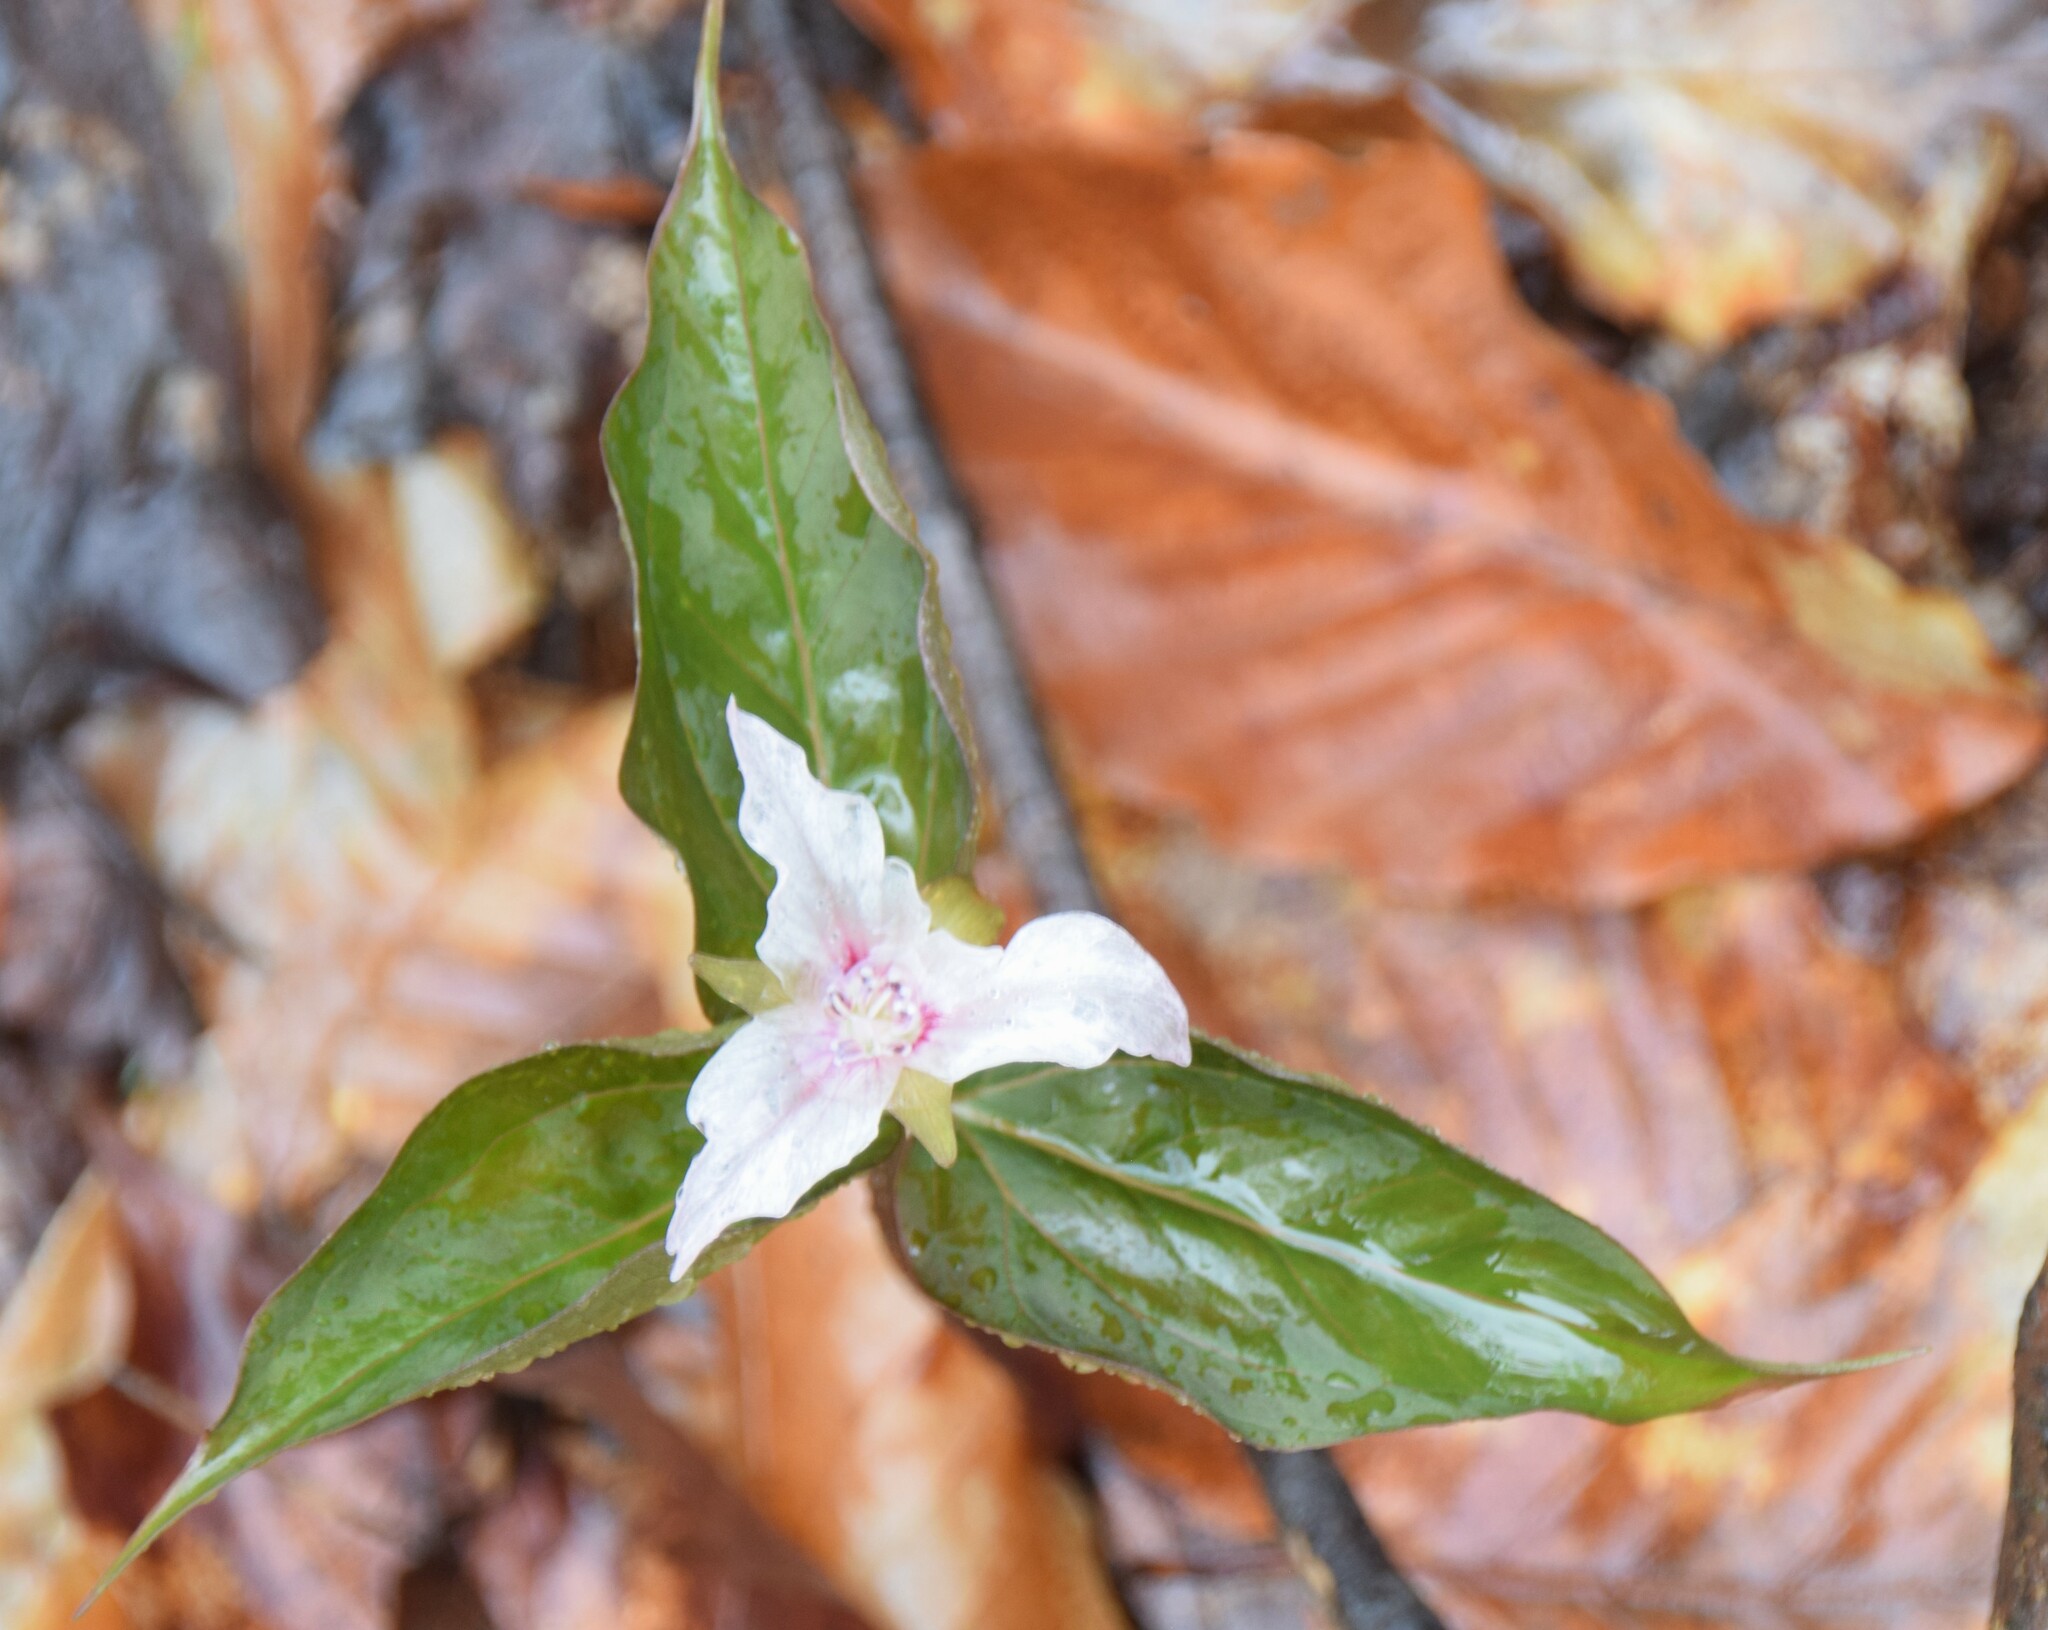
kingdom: Plantae
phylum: Tracheophyta
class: Liliopsida
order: Liliales
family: Melanthiaceae
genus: Trillium
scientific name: Trillium undulatum
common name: Paint trillium
